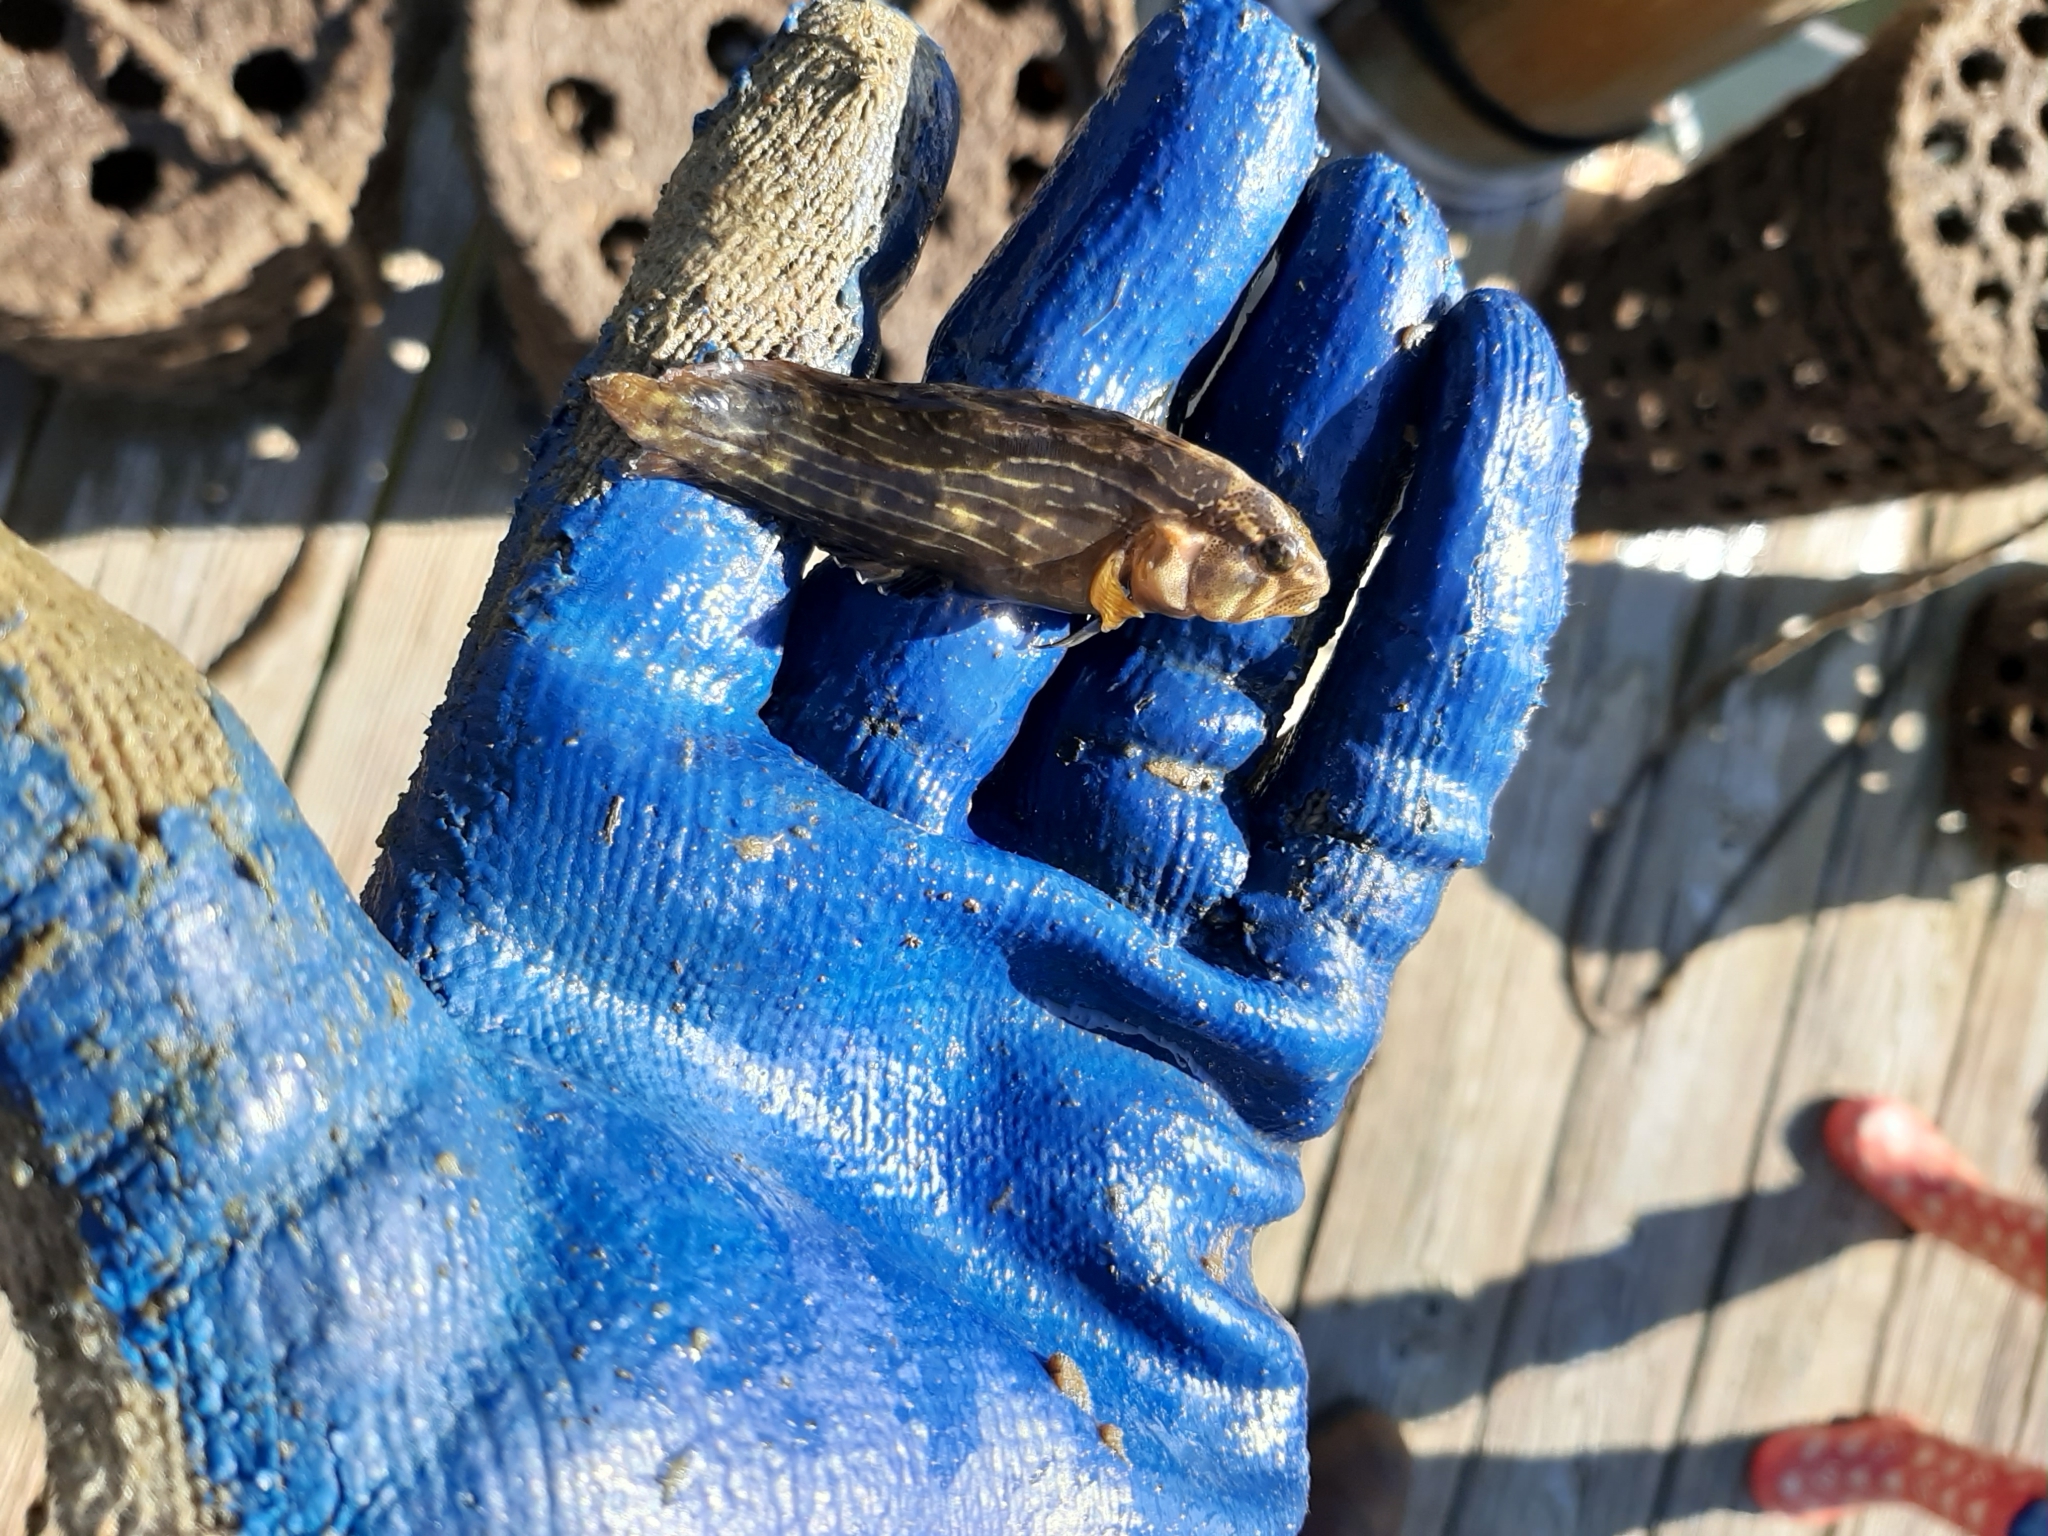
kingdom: Animalia
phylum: Chordata
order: Perciformes
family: Blenniidae
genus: Chasmodes
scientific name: Chasmodes bosquianus
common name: Striped blenny
